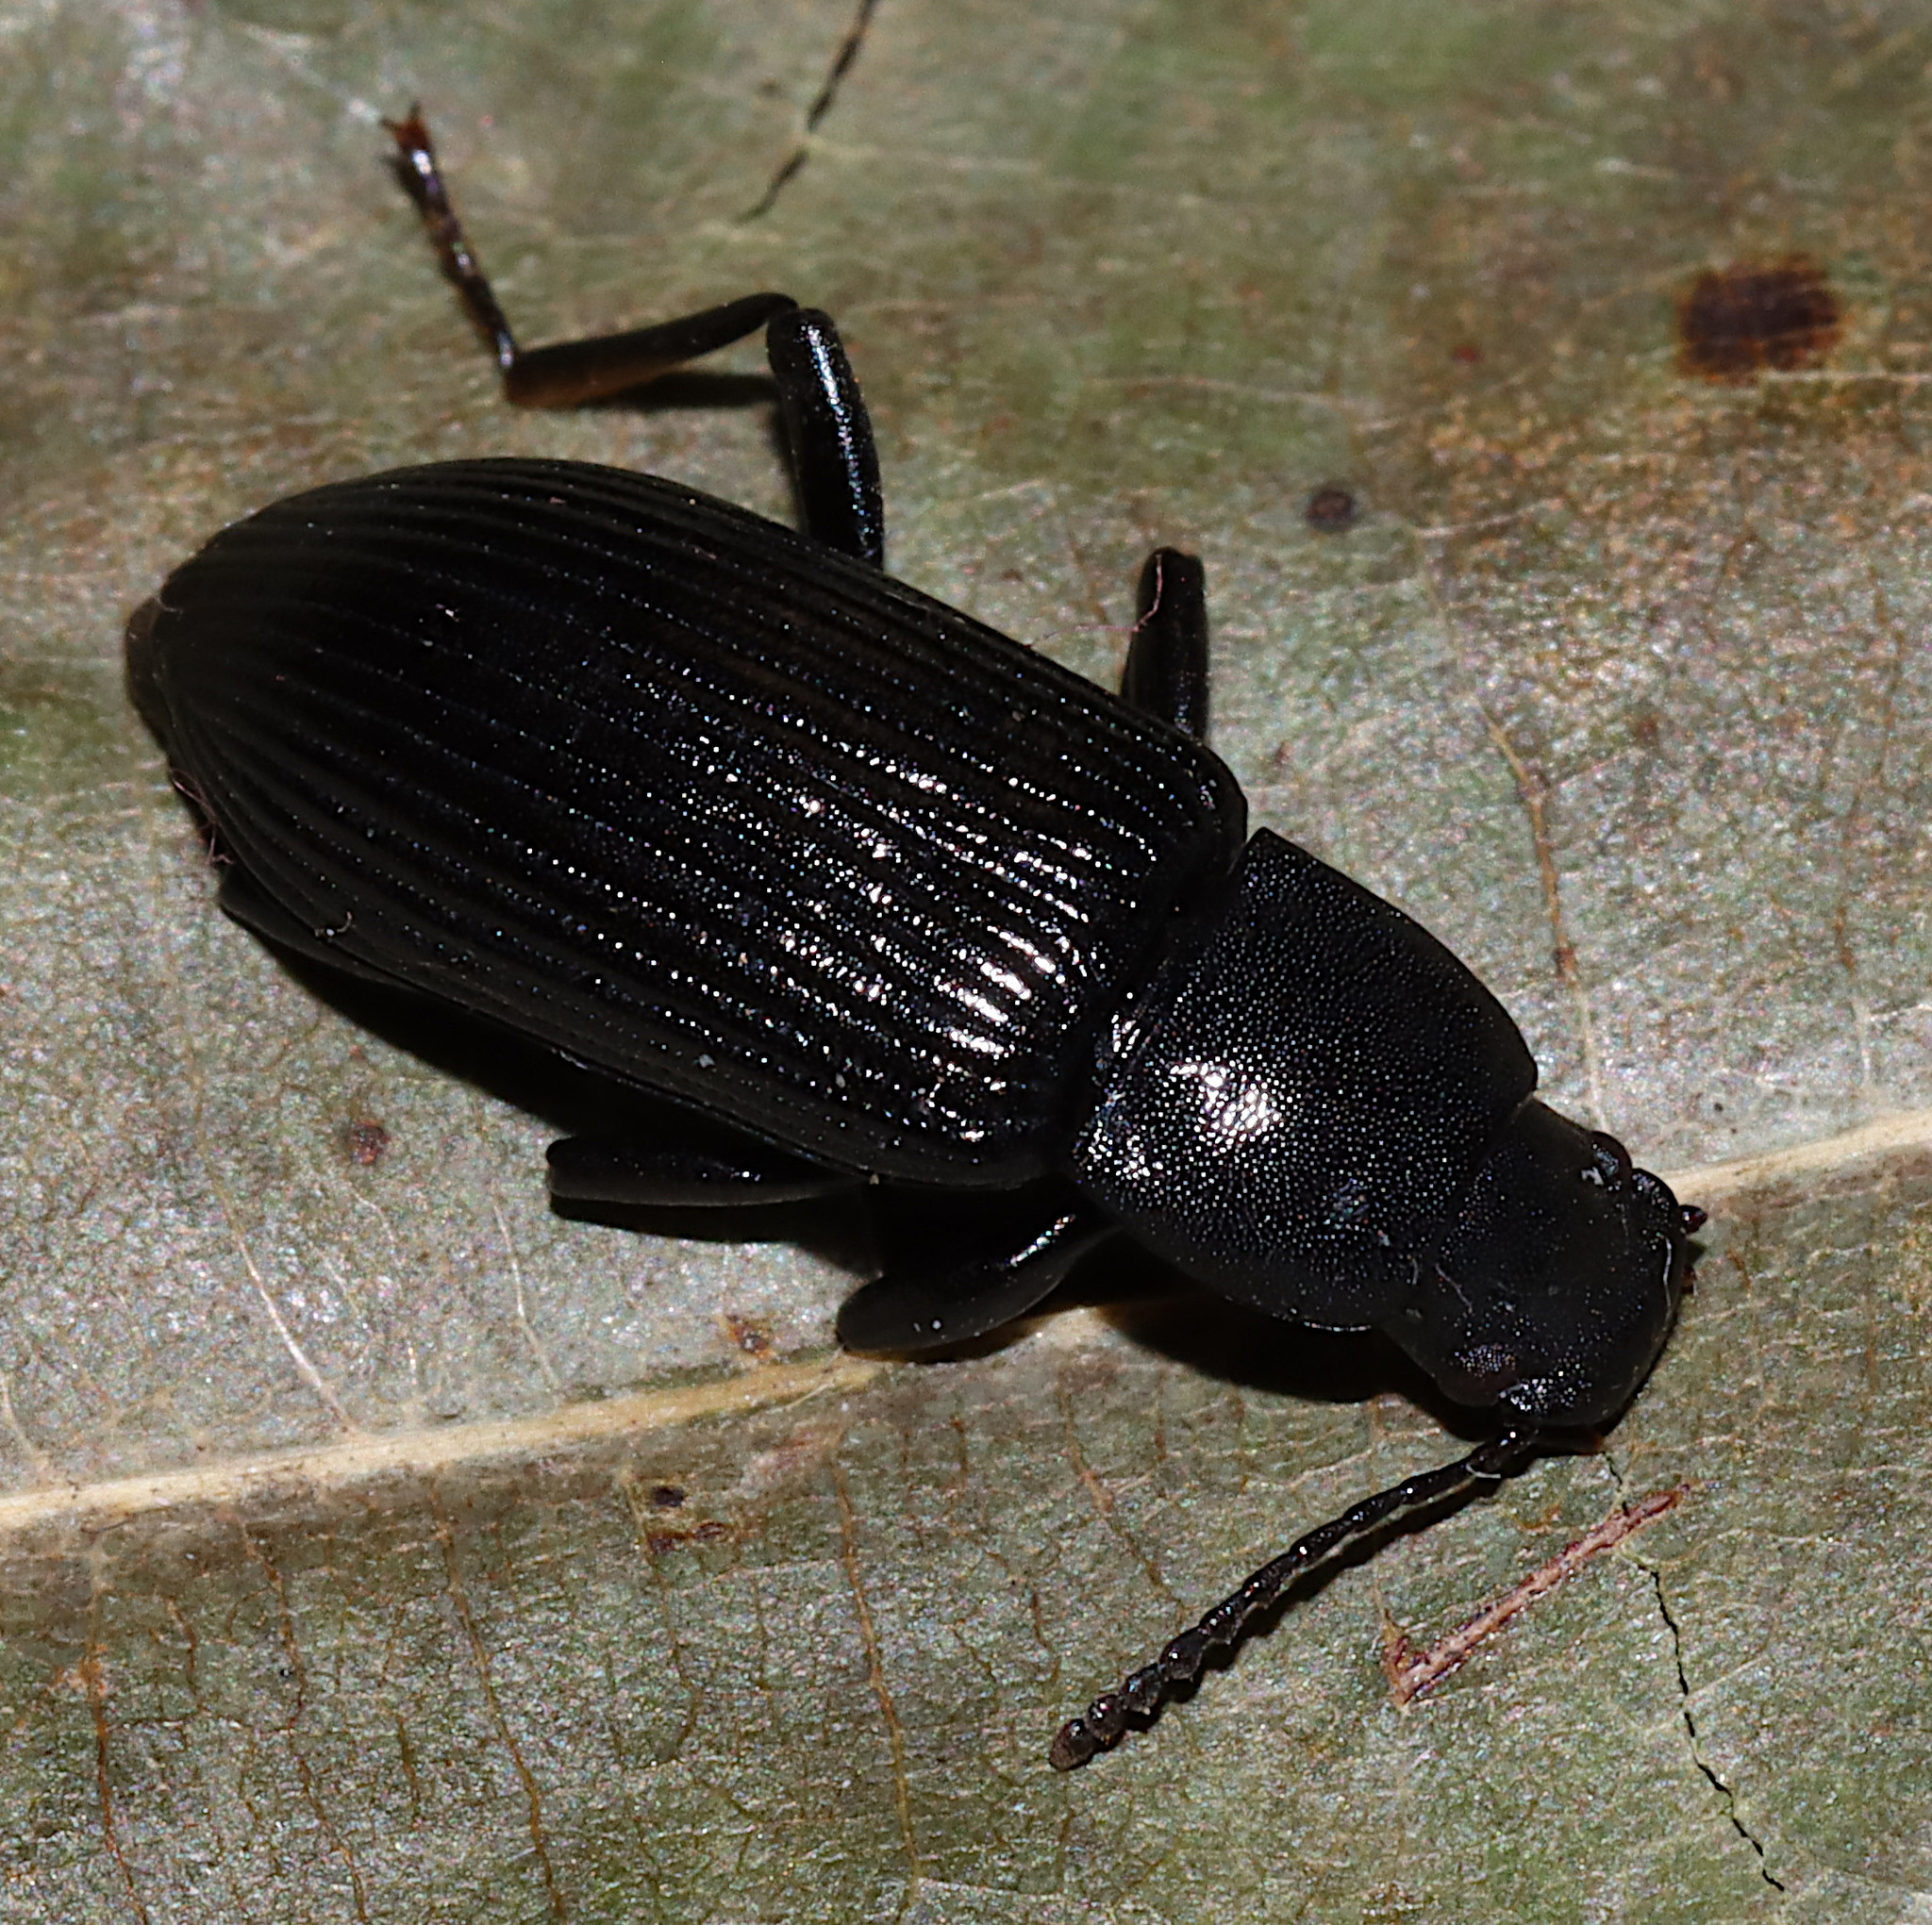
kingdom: Animalia
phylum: Arthropoda
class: Insecta
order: Coleoptera
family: Tenebrionidae
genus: Xylopinus
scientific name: Xylopinus saperdoides
